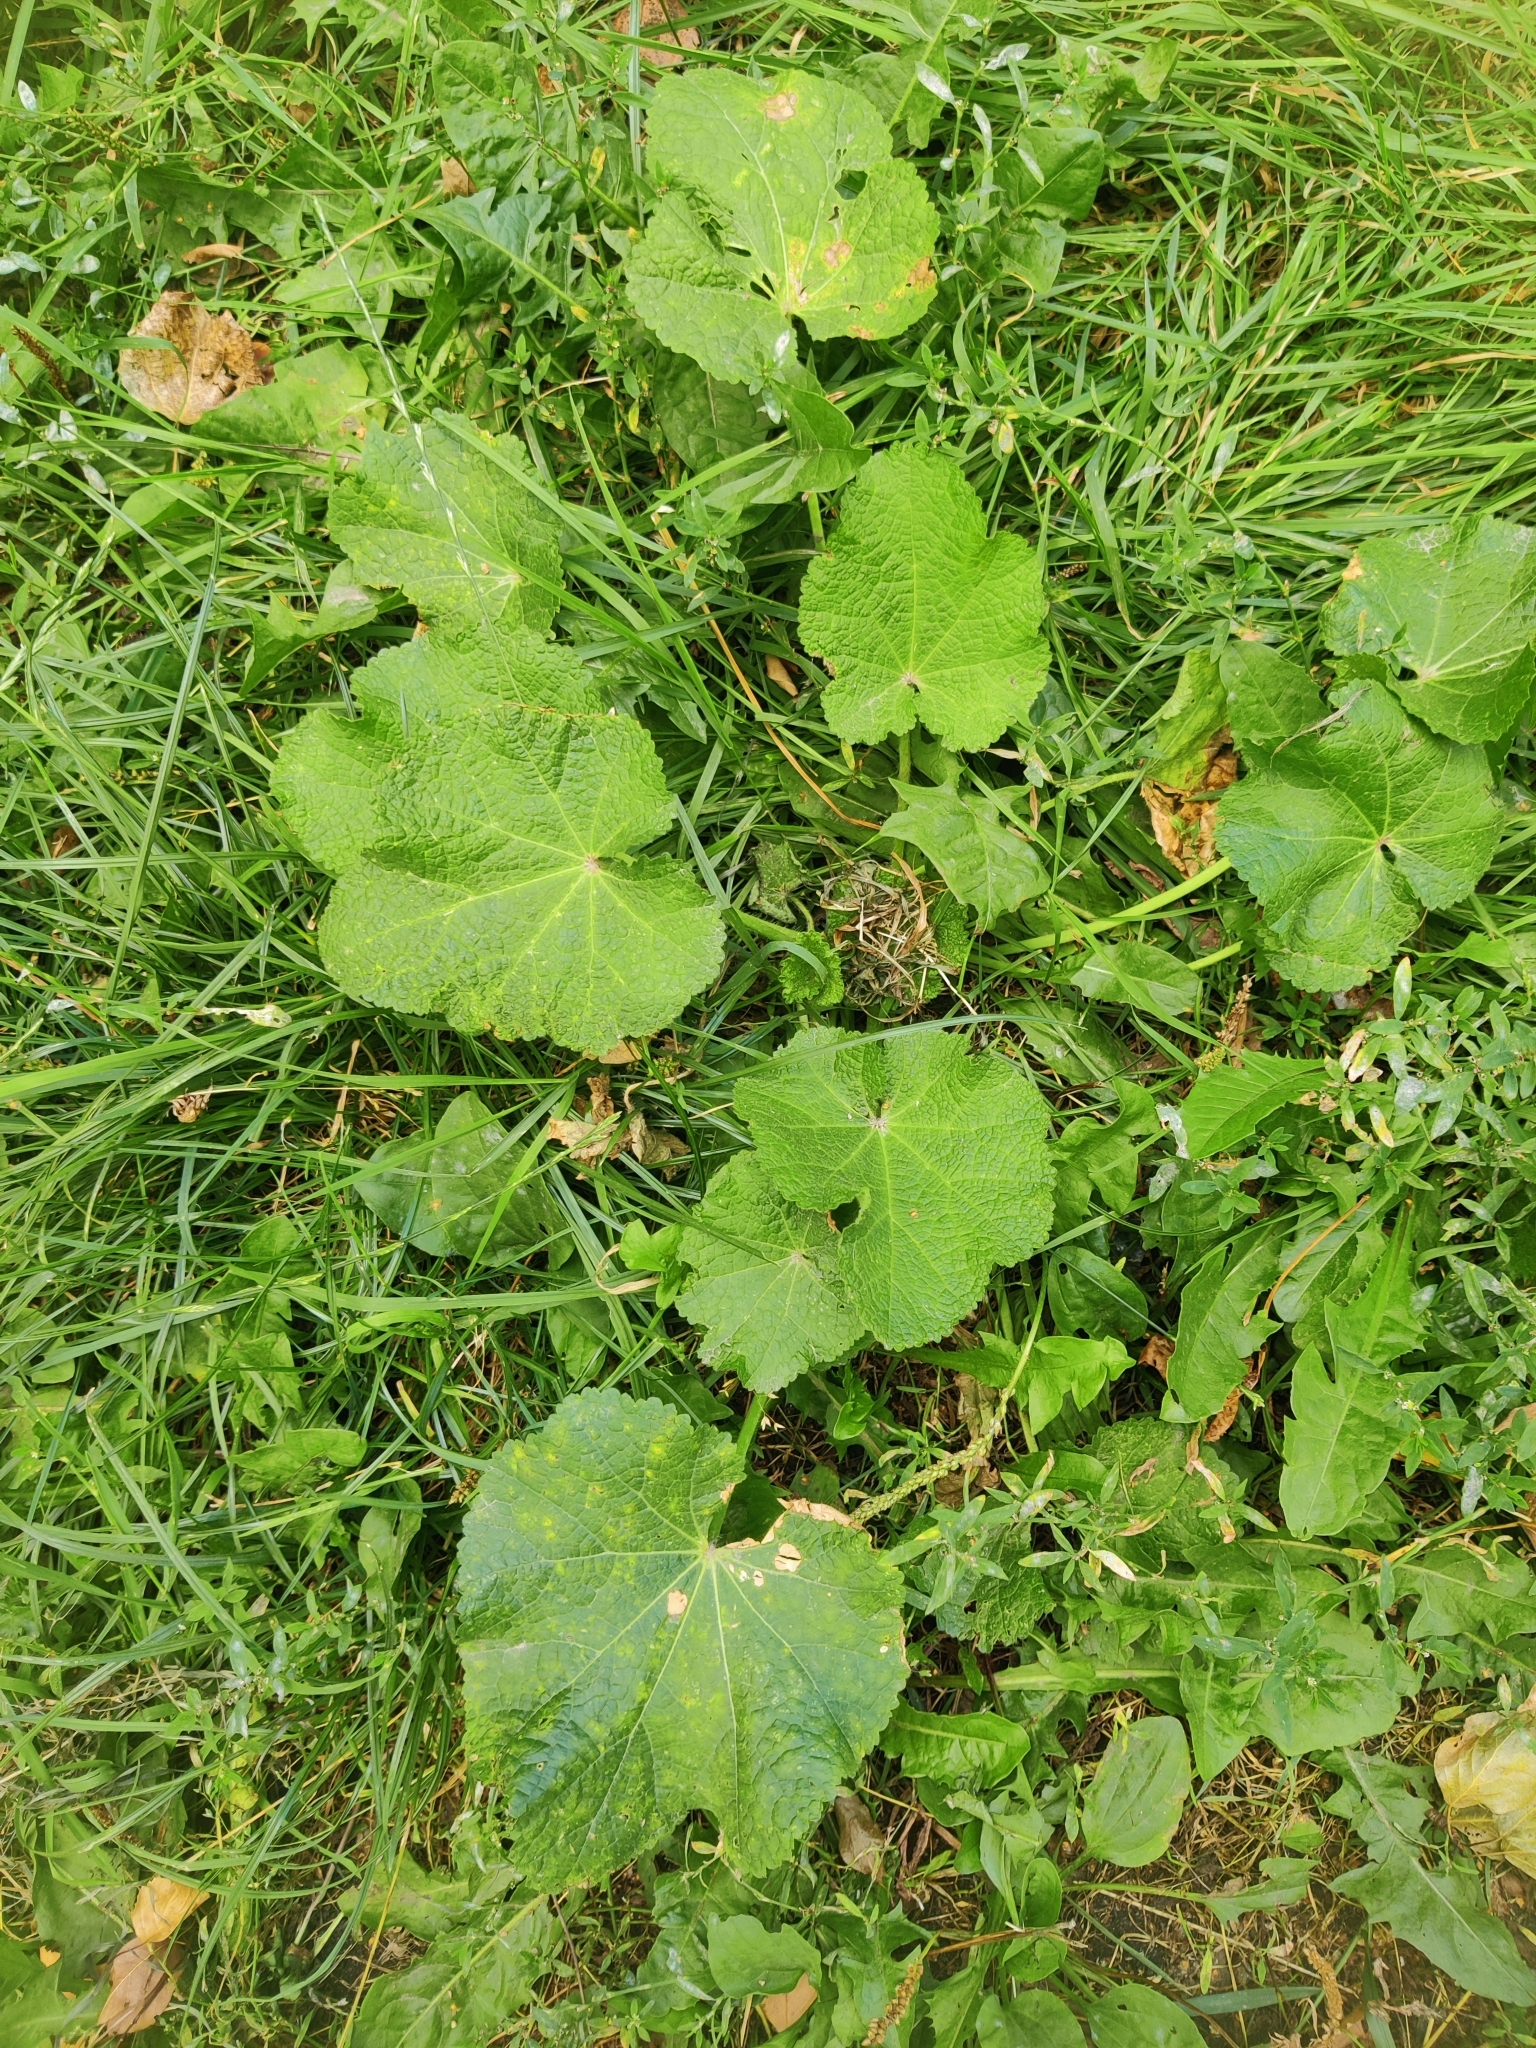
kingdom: Plantae
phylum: Tracheophyta
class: Magnoliopsida
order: Malvales
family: Malvaceae
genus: Alcea
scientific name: Alcea rosea
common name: Hollyhock
